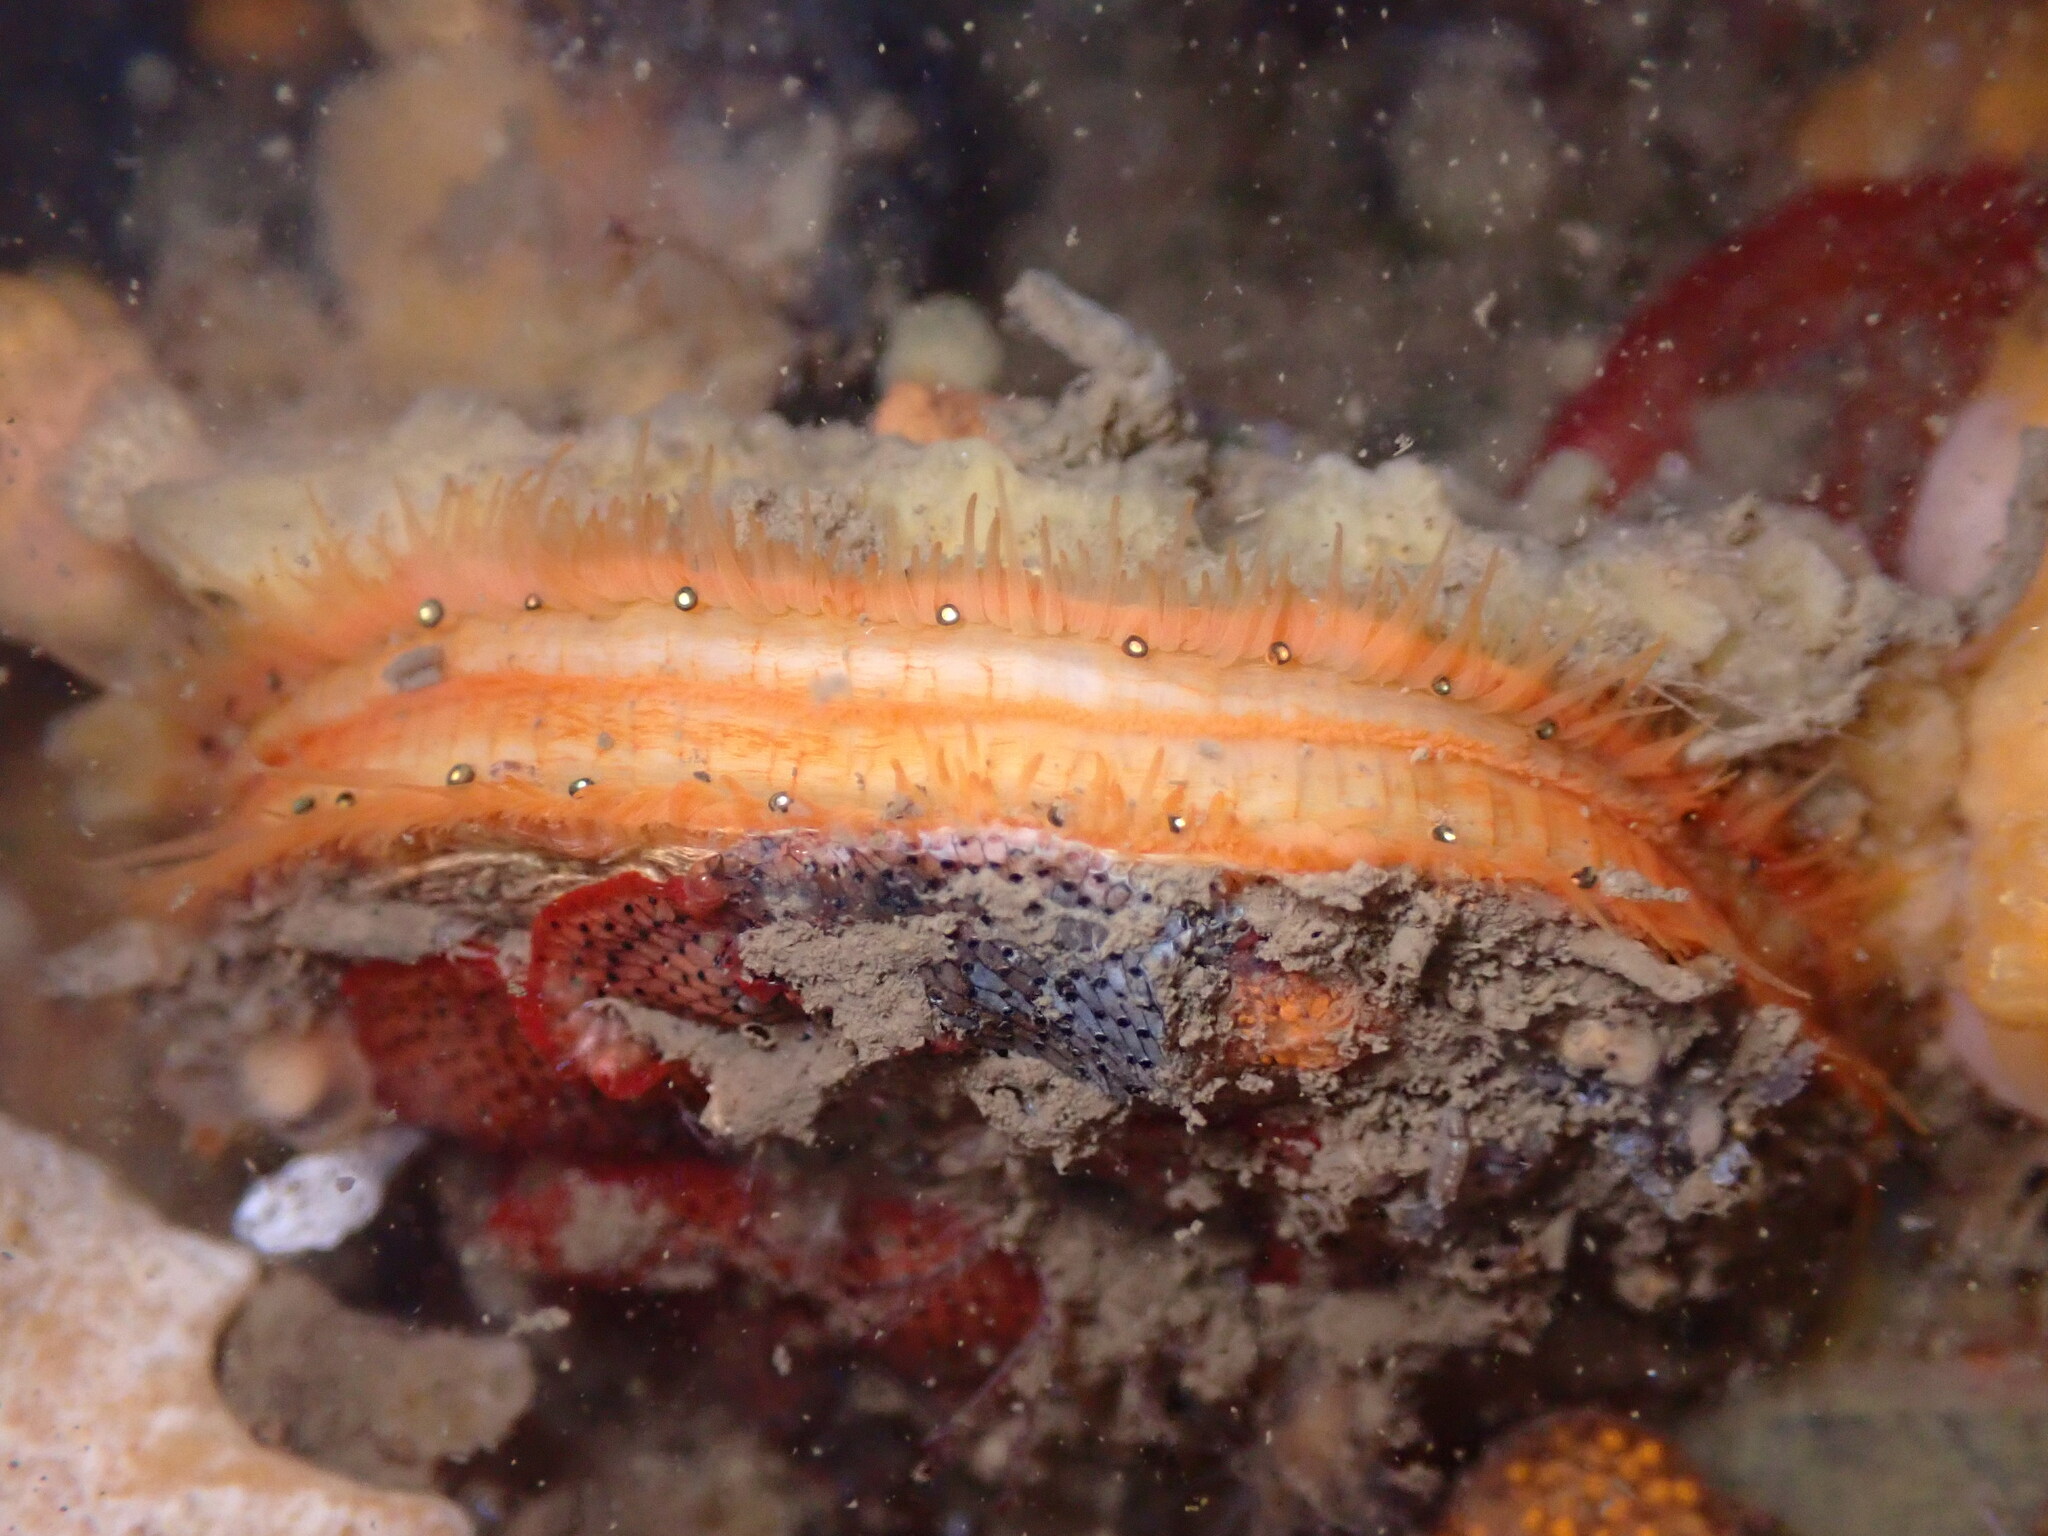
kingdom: Animalia
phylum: Mollusca
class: Bivalvia
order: Pectinida
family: Pectinidae
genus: Crassadoma
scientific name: Crassadoma gigantea
